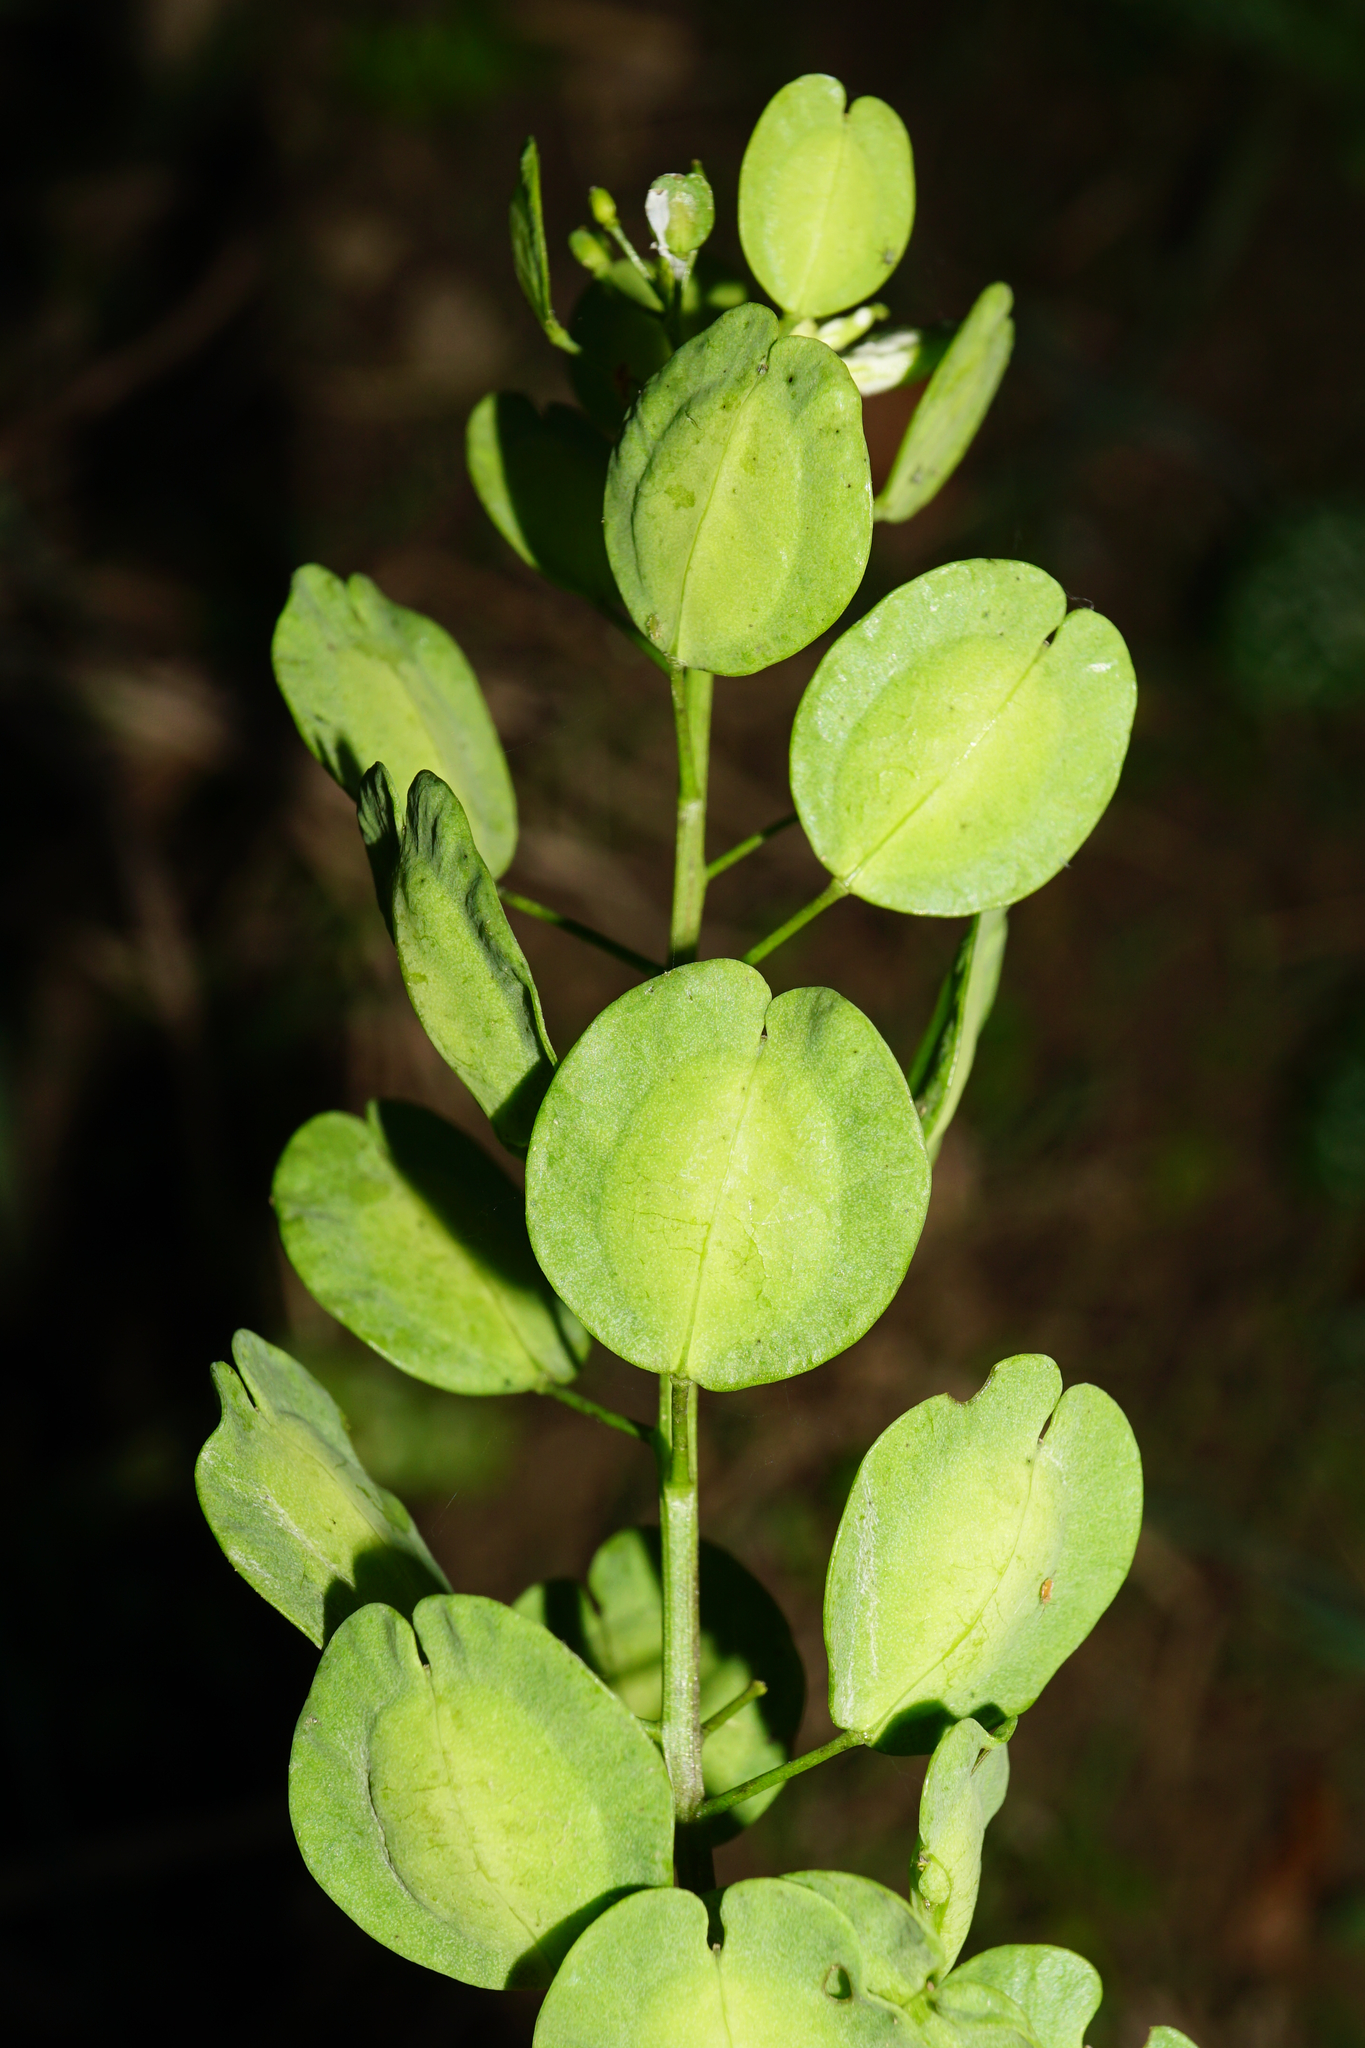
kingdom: Plantae
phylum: Tracheophyta
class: Magnoliopsida
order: Brassicales
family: Brassicaceae
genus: Thlaspi
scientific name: Thlaspi arvense
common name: Field pennycress
